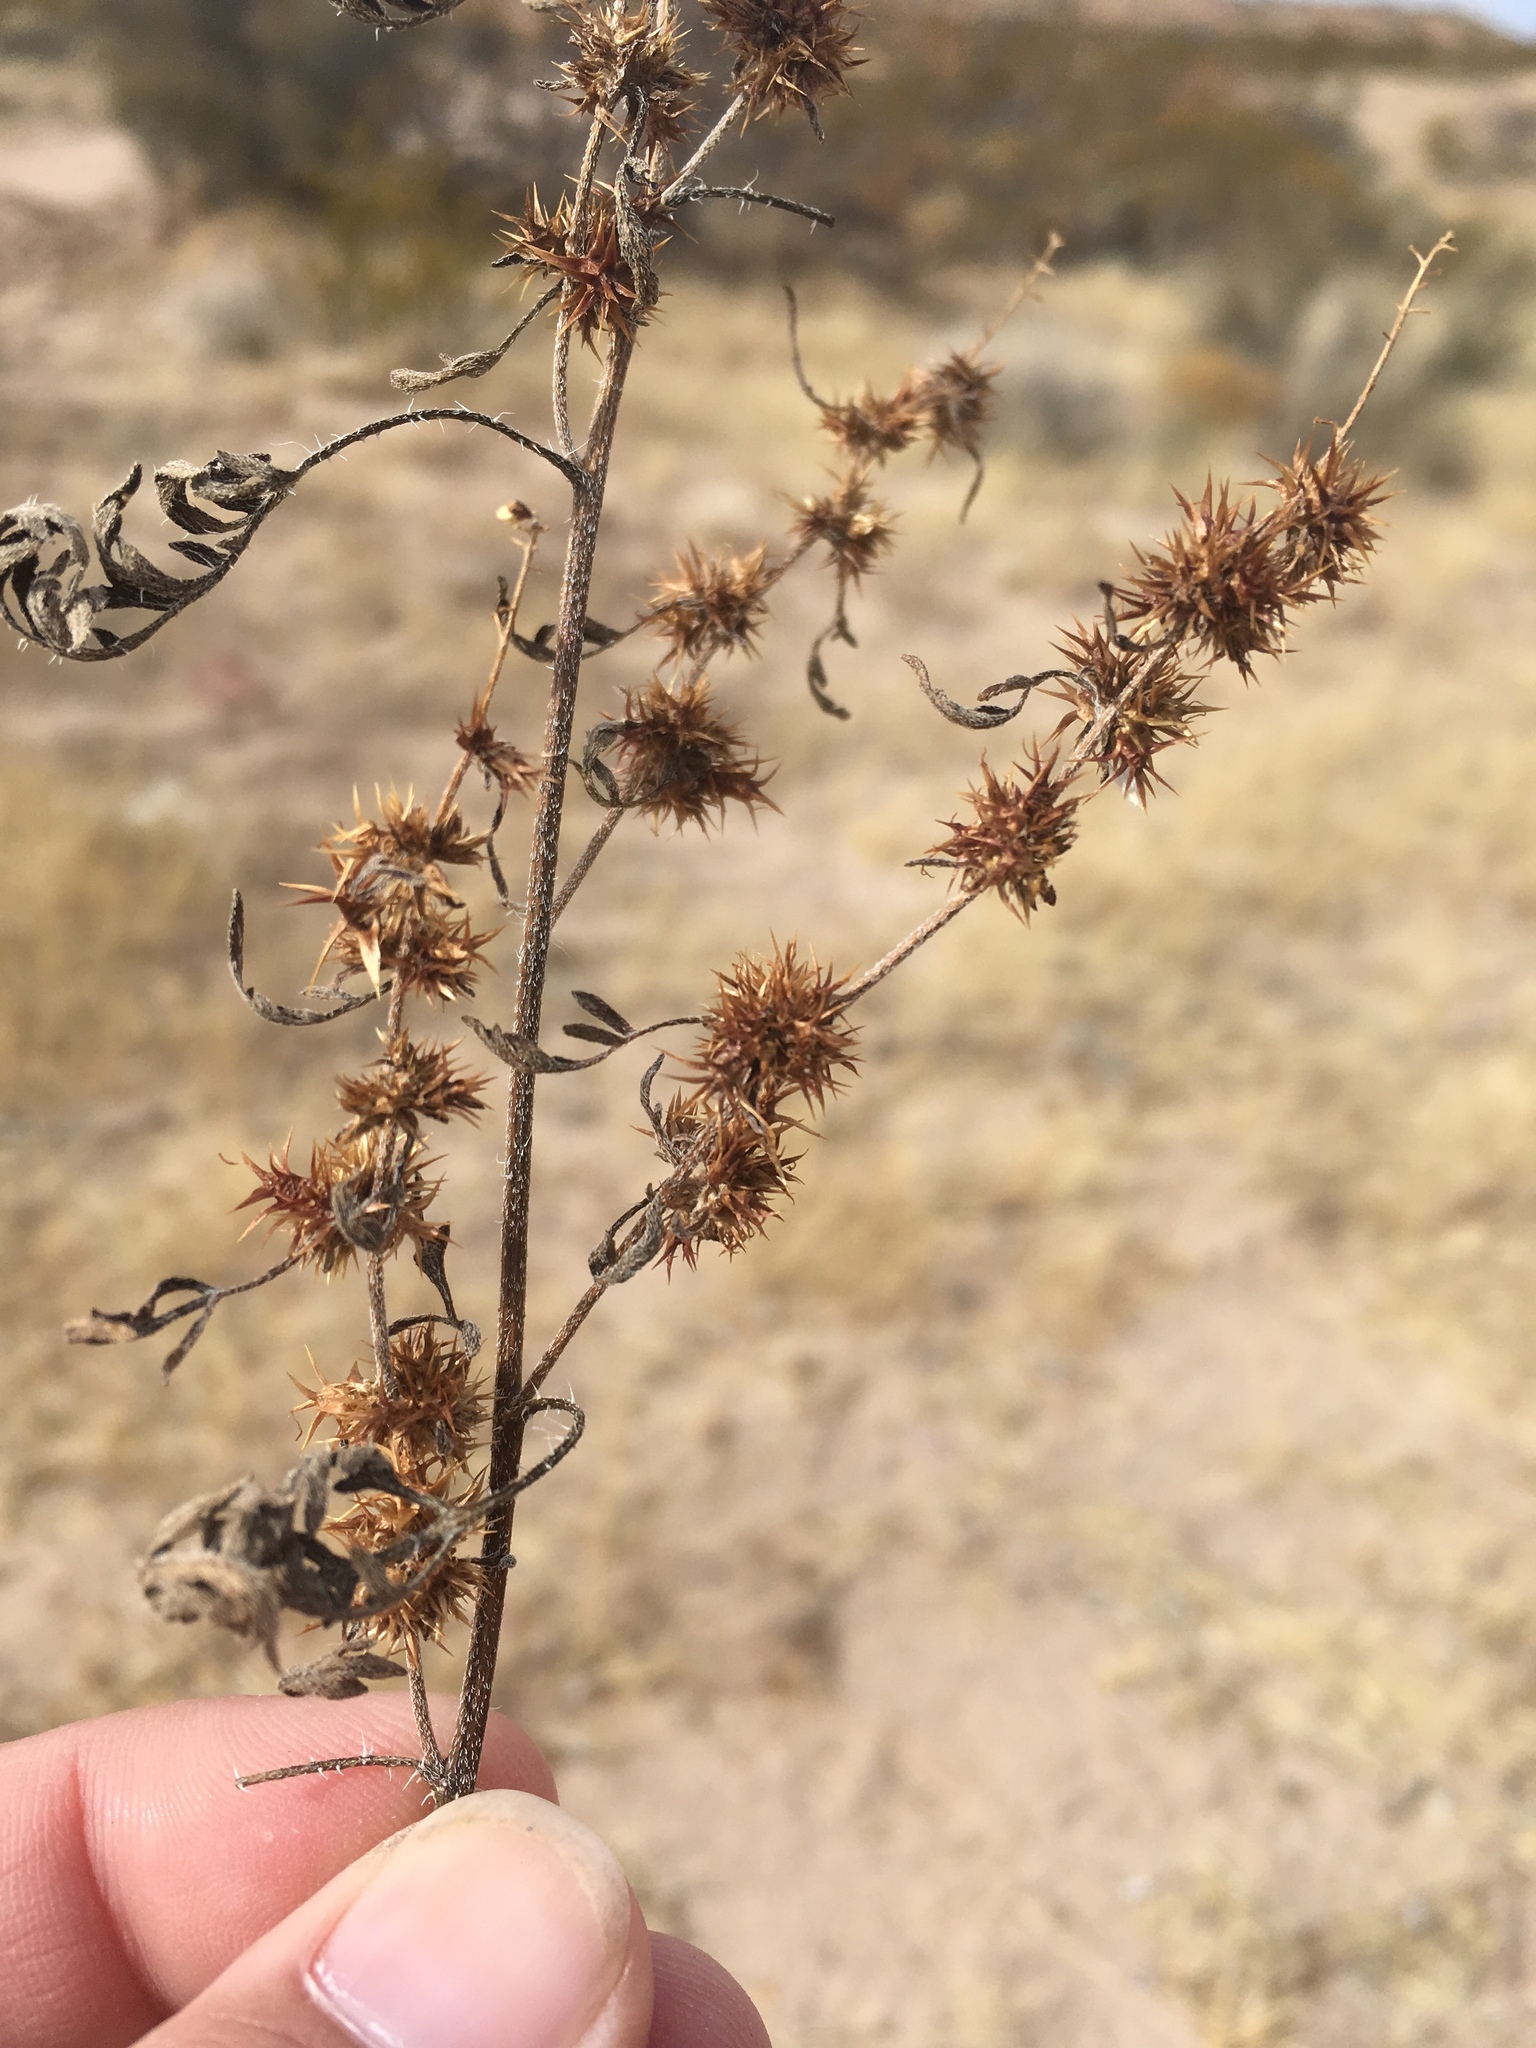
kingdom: Plantae
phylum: Tracheophyta
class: Magnoliopsida
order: Asterales
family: Asteraceae
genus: Ambrosia
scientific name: Ambrosia acanthicarpa
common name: Hooker's bur ragweed
